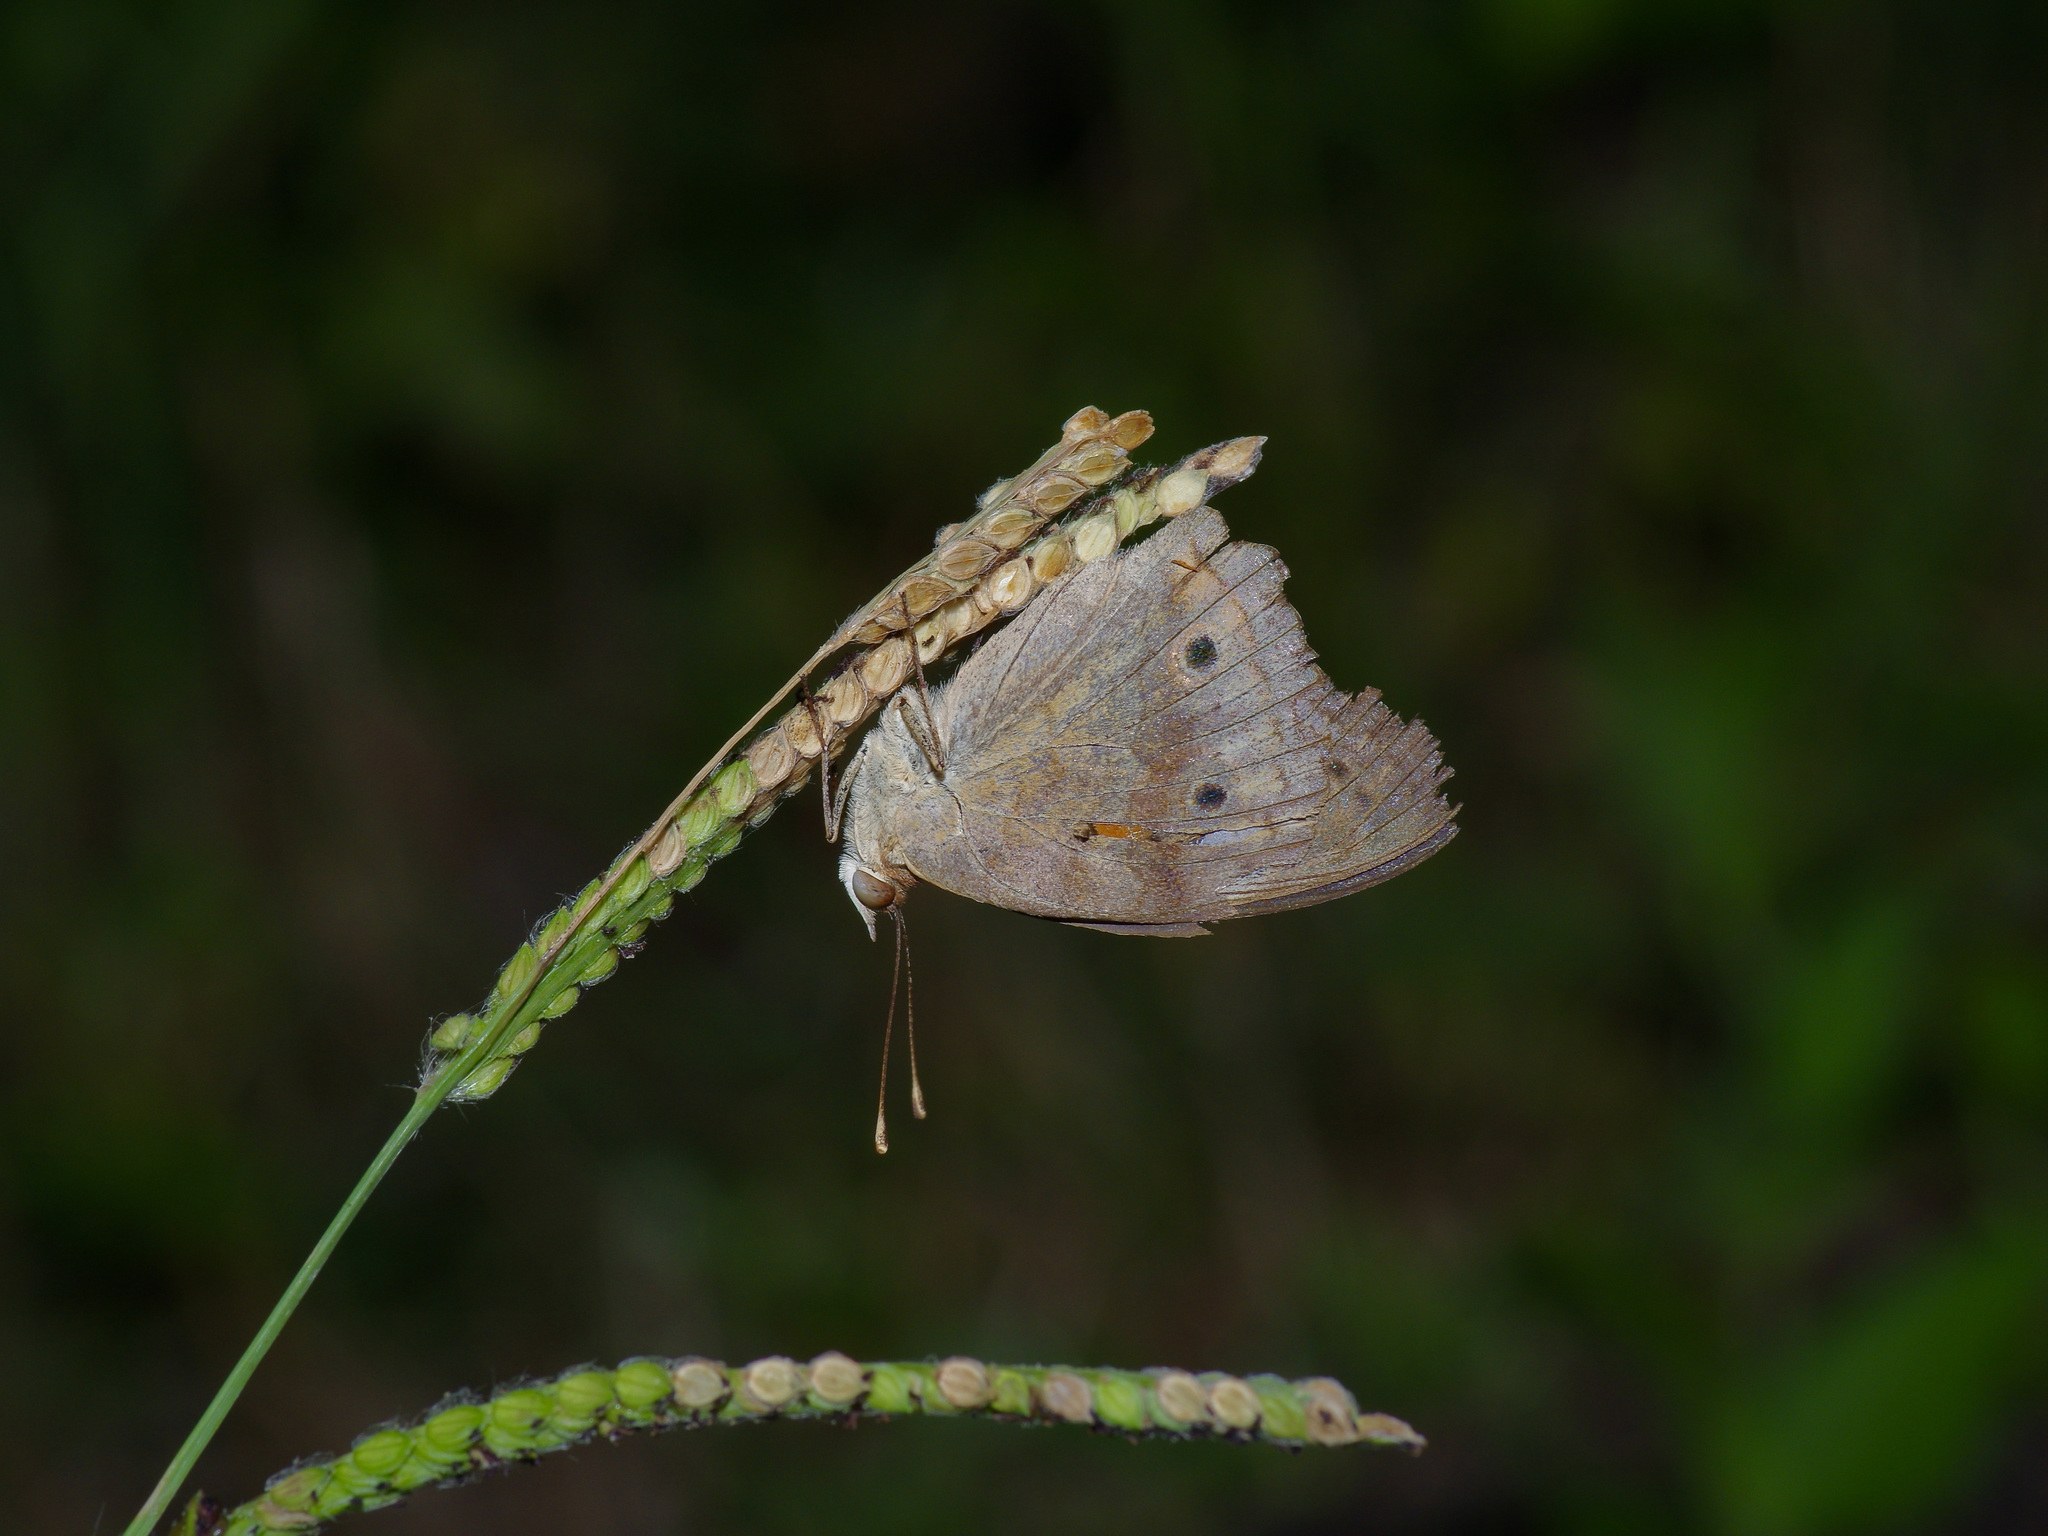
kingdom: Animalia
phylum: Arthropoda
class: Insecta
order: Lepidoptera
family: Nymphalidae
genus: Junonia
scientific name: Junonia coenia
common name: Common buckeye
